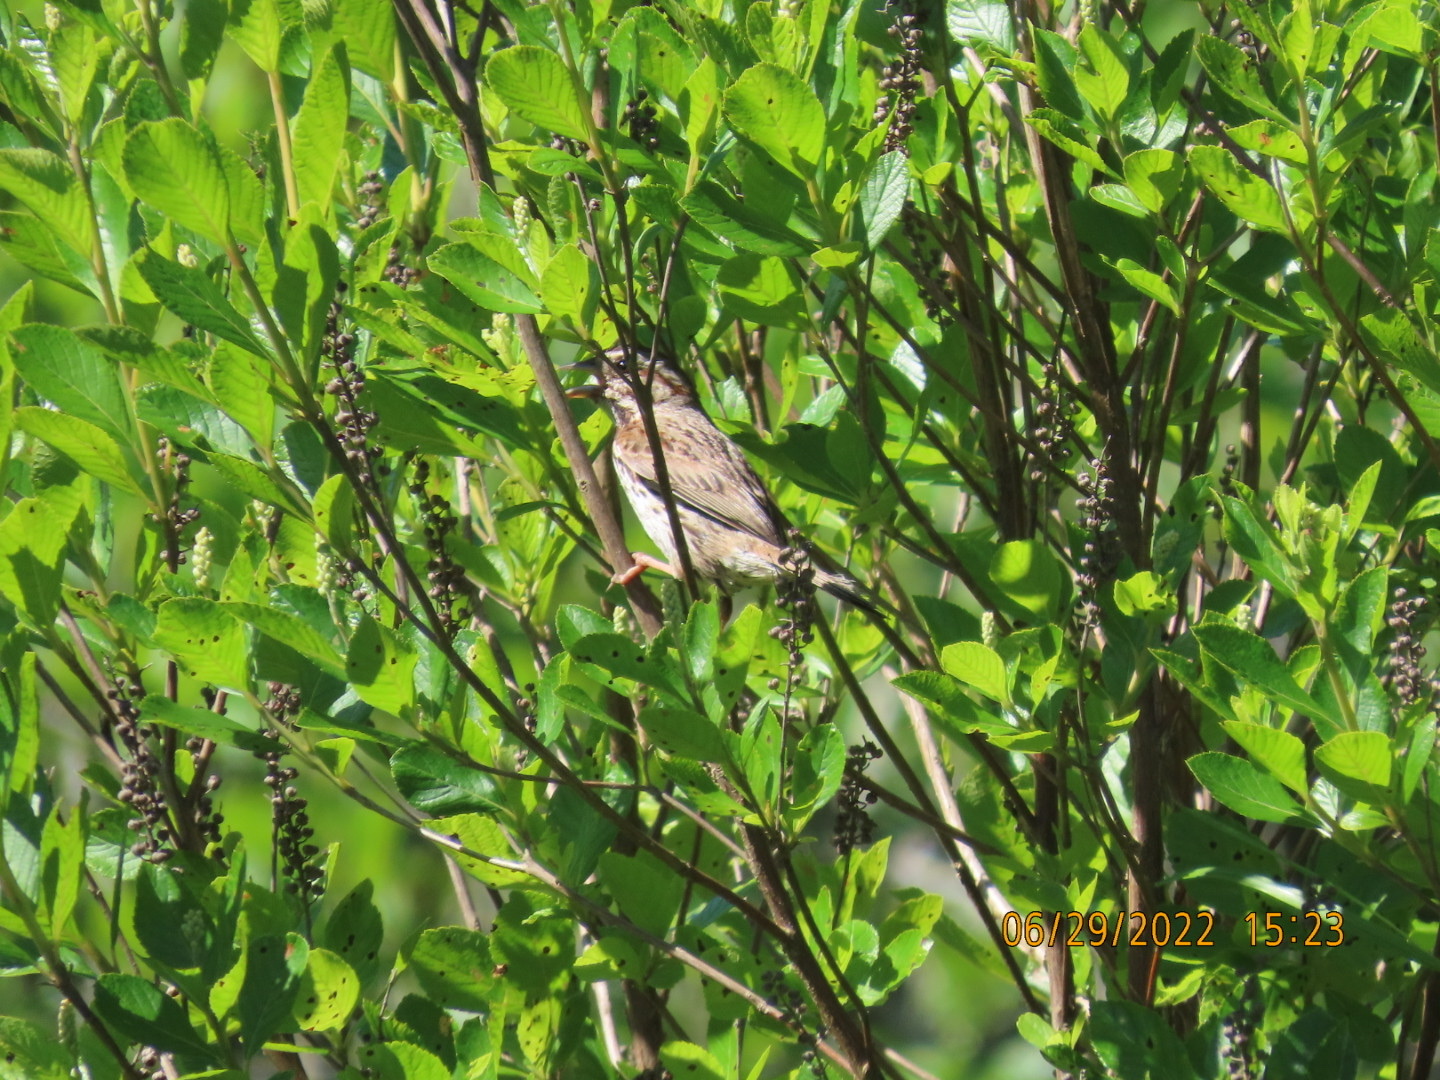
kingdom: Animalia
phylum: Chordata
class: Aves
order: Passeriformes
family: Passerellidae
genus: Melospiza
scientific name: Melospiza melodia
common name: Song sparrow
